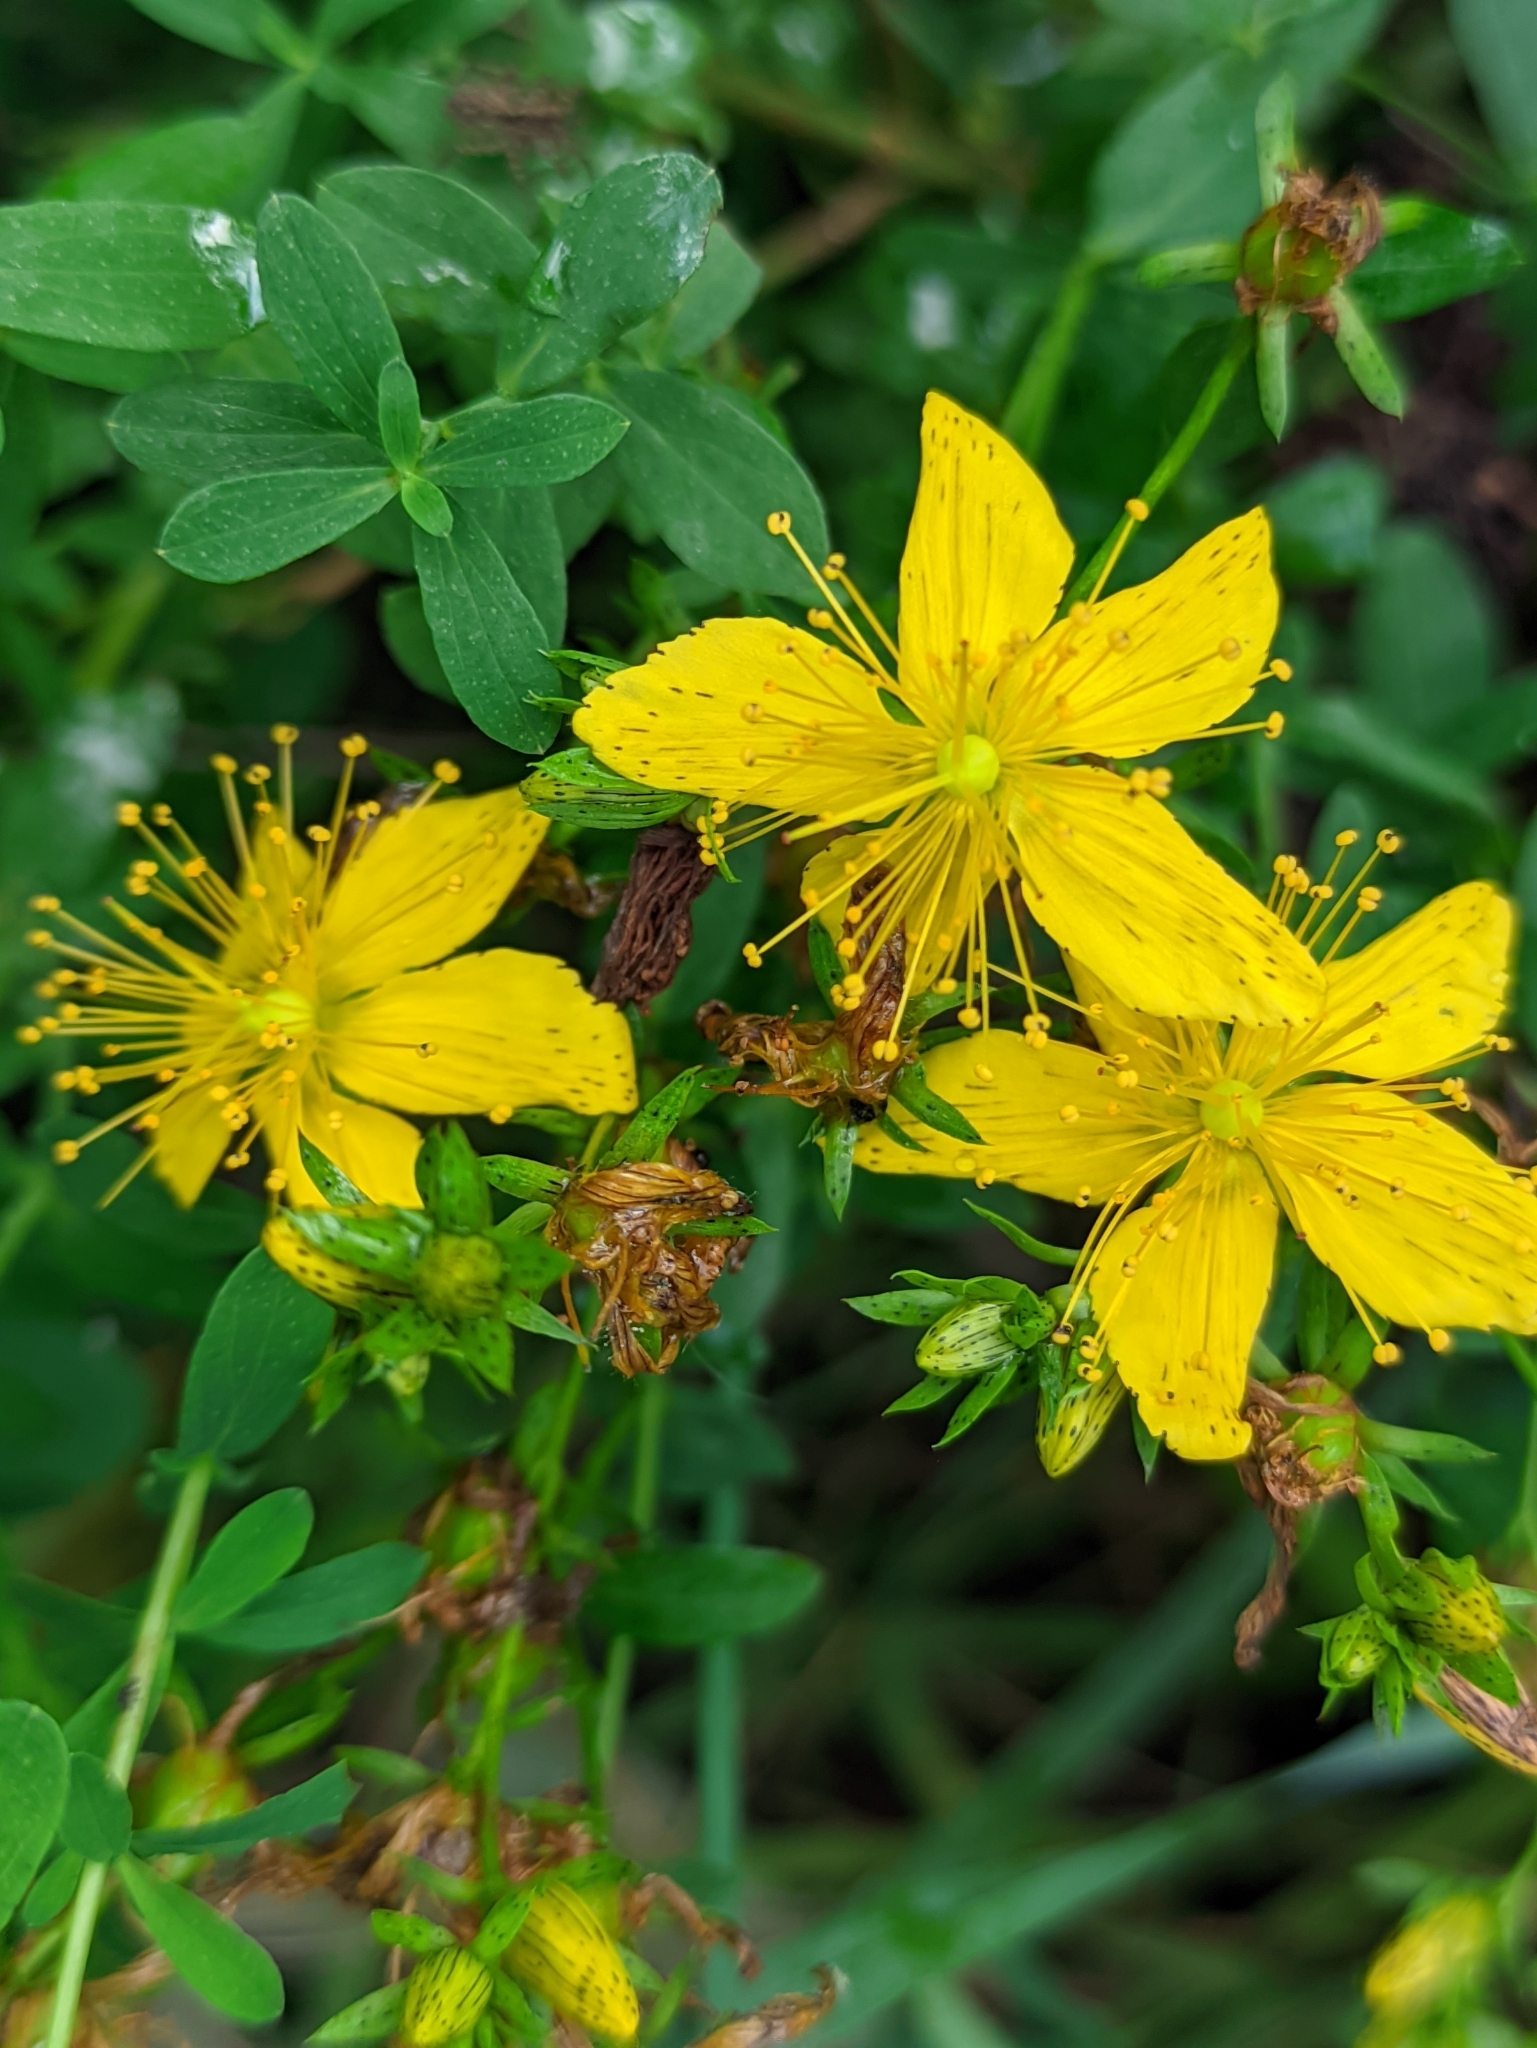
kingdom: Plantae
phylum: Tracheophyta
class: Magnoliopsida
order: Malpighiales
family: Hypericaceae
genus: Hypericum
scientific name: Hypericum perforatum
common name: Common st. johnswort
